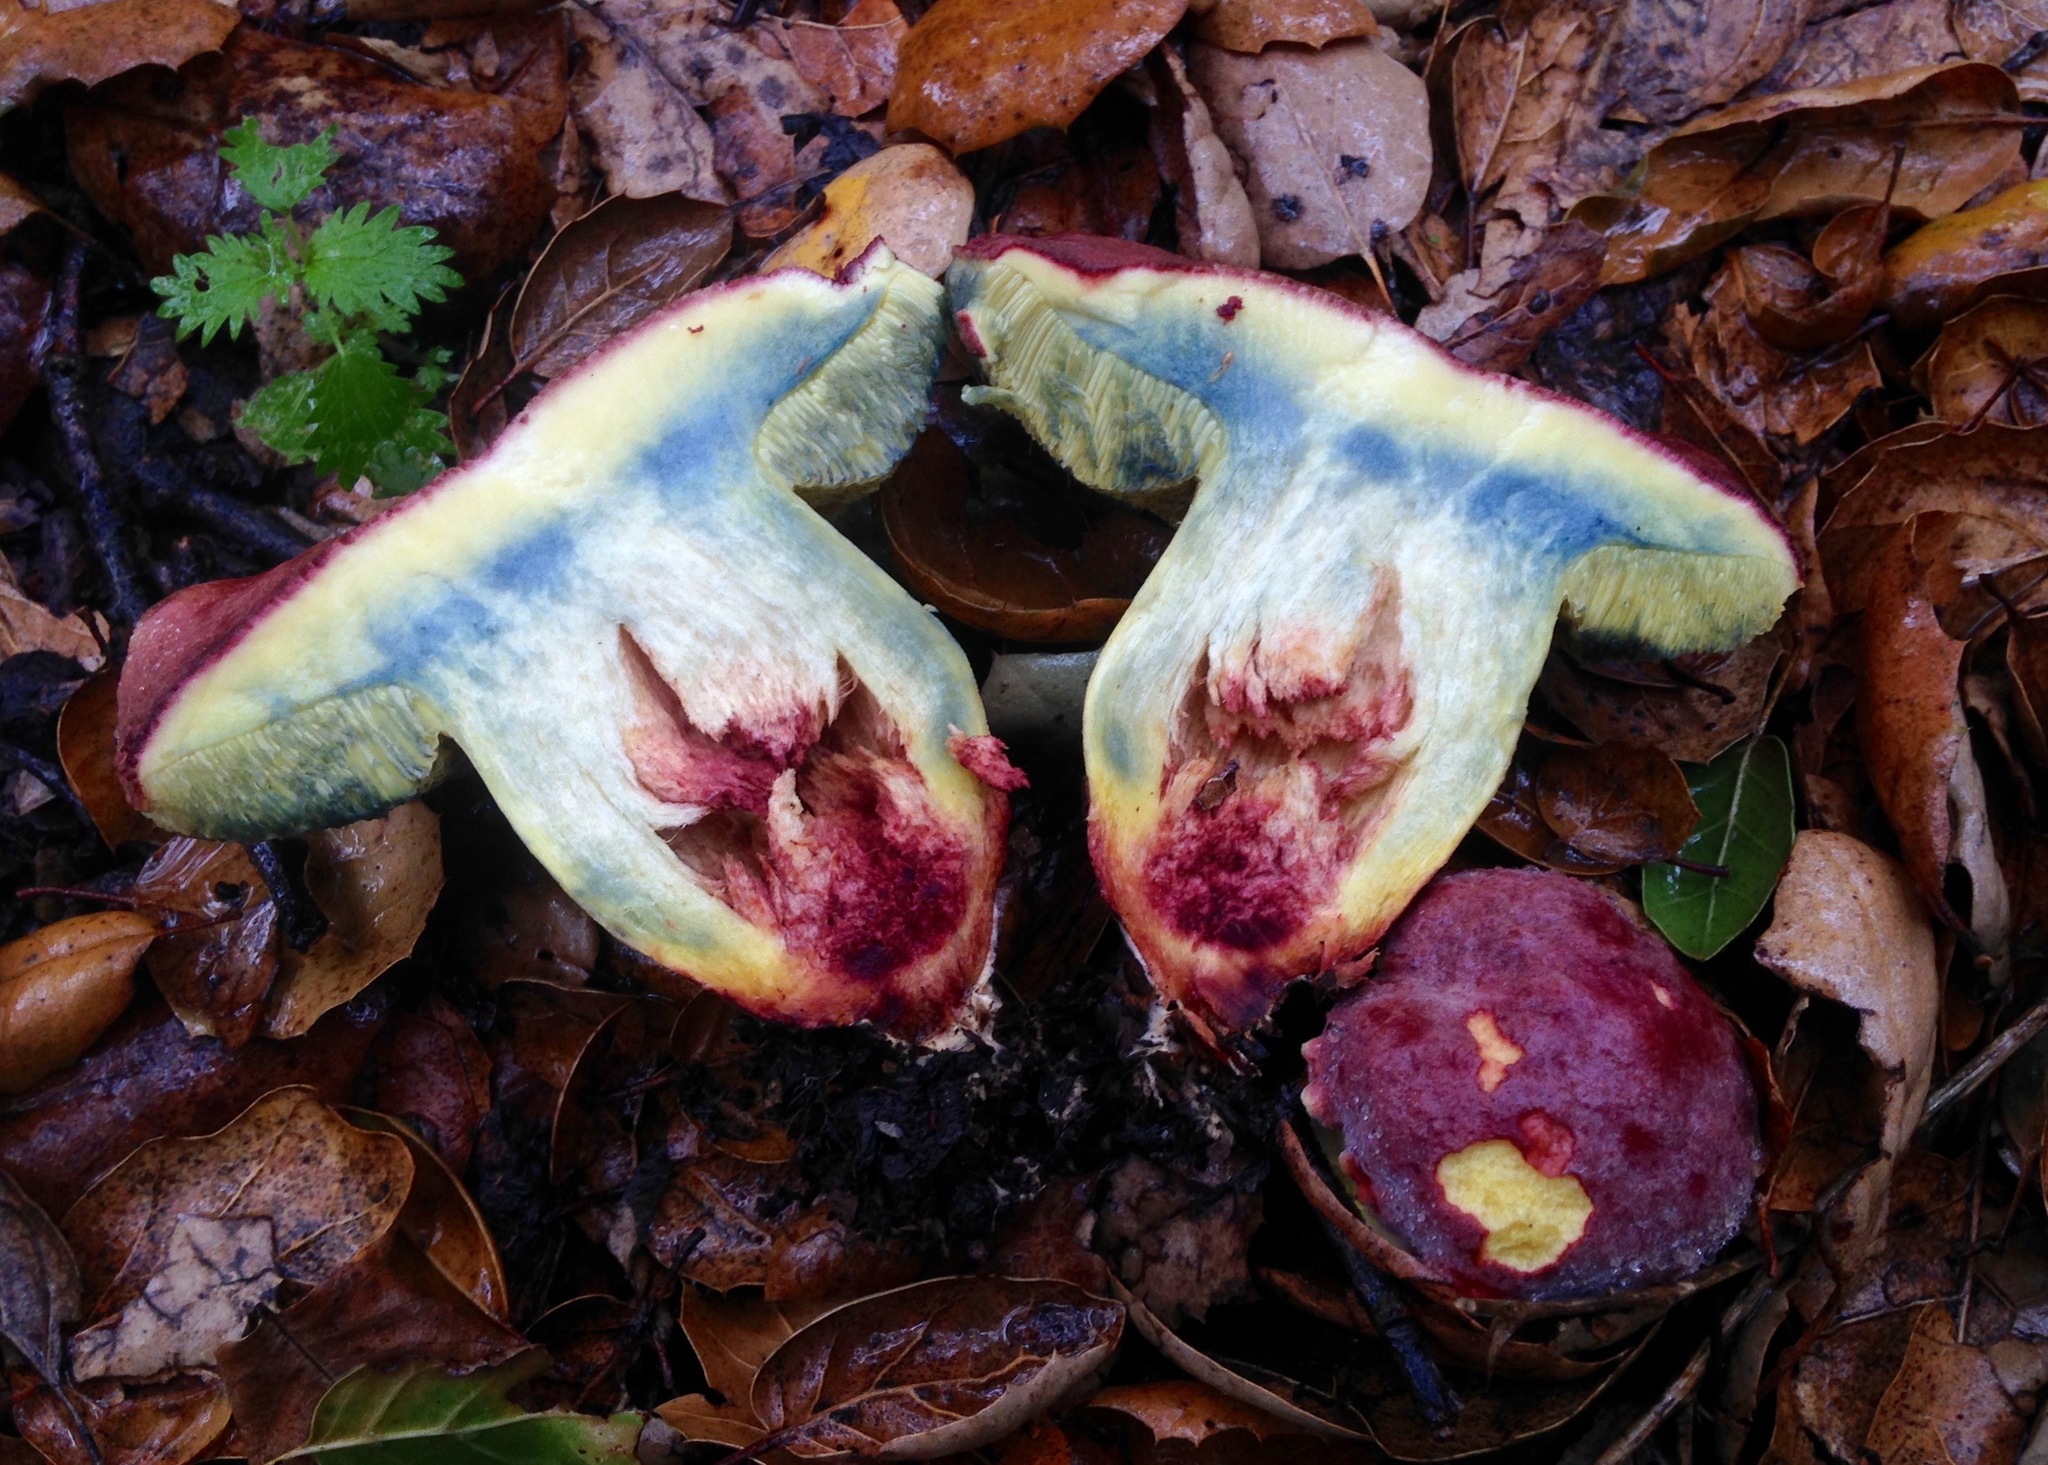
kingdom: Fungi
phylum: Basidiomycota
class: Agaricomycetes
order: Boletales
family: Boletaceae
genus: Xerocomellus
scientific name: Xerocomellus dryophilus
